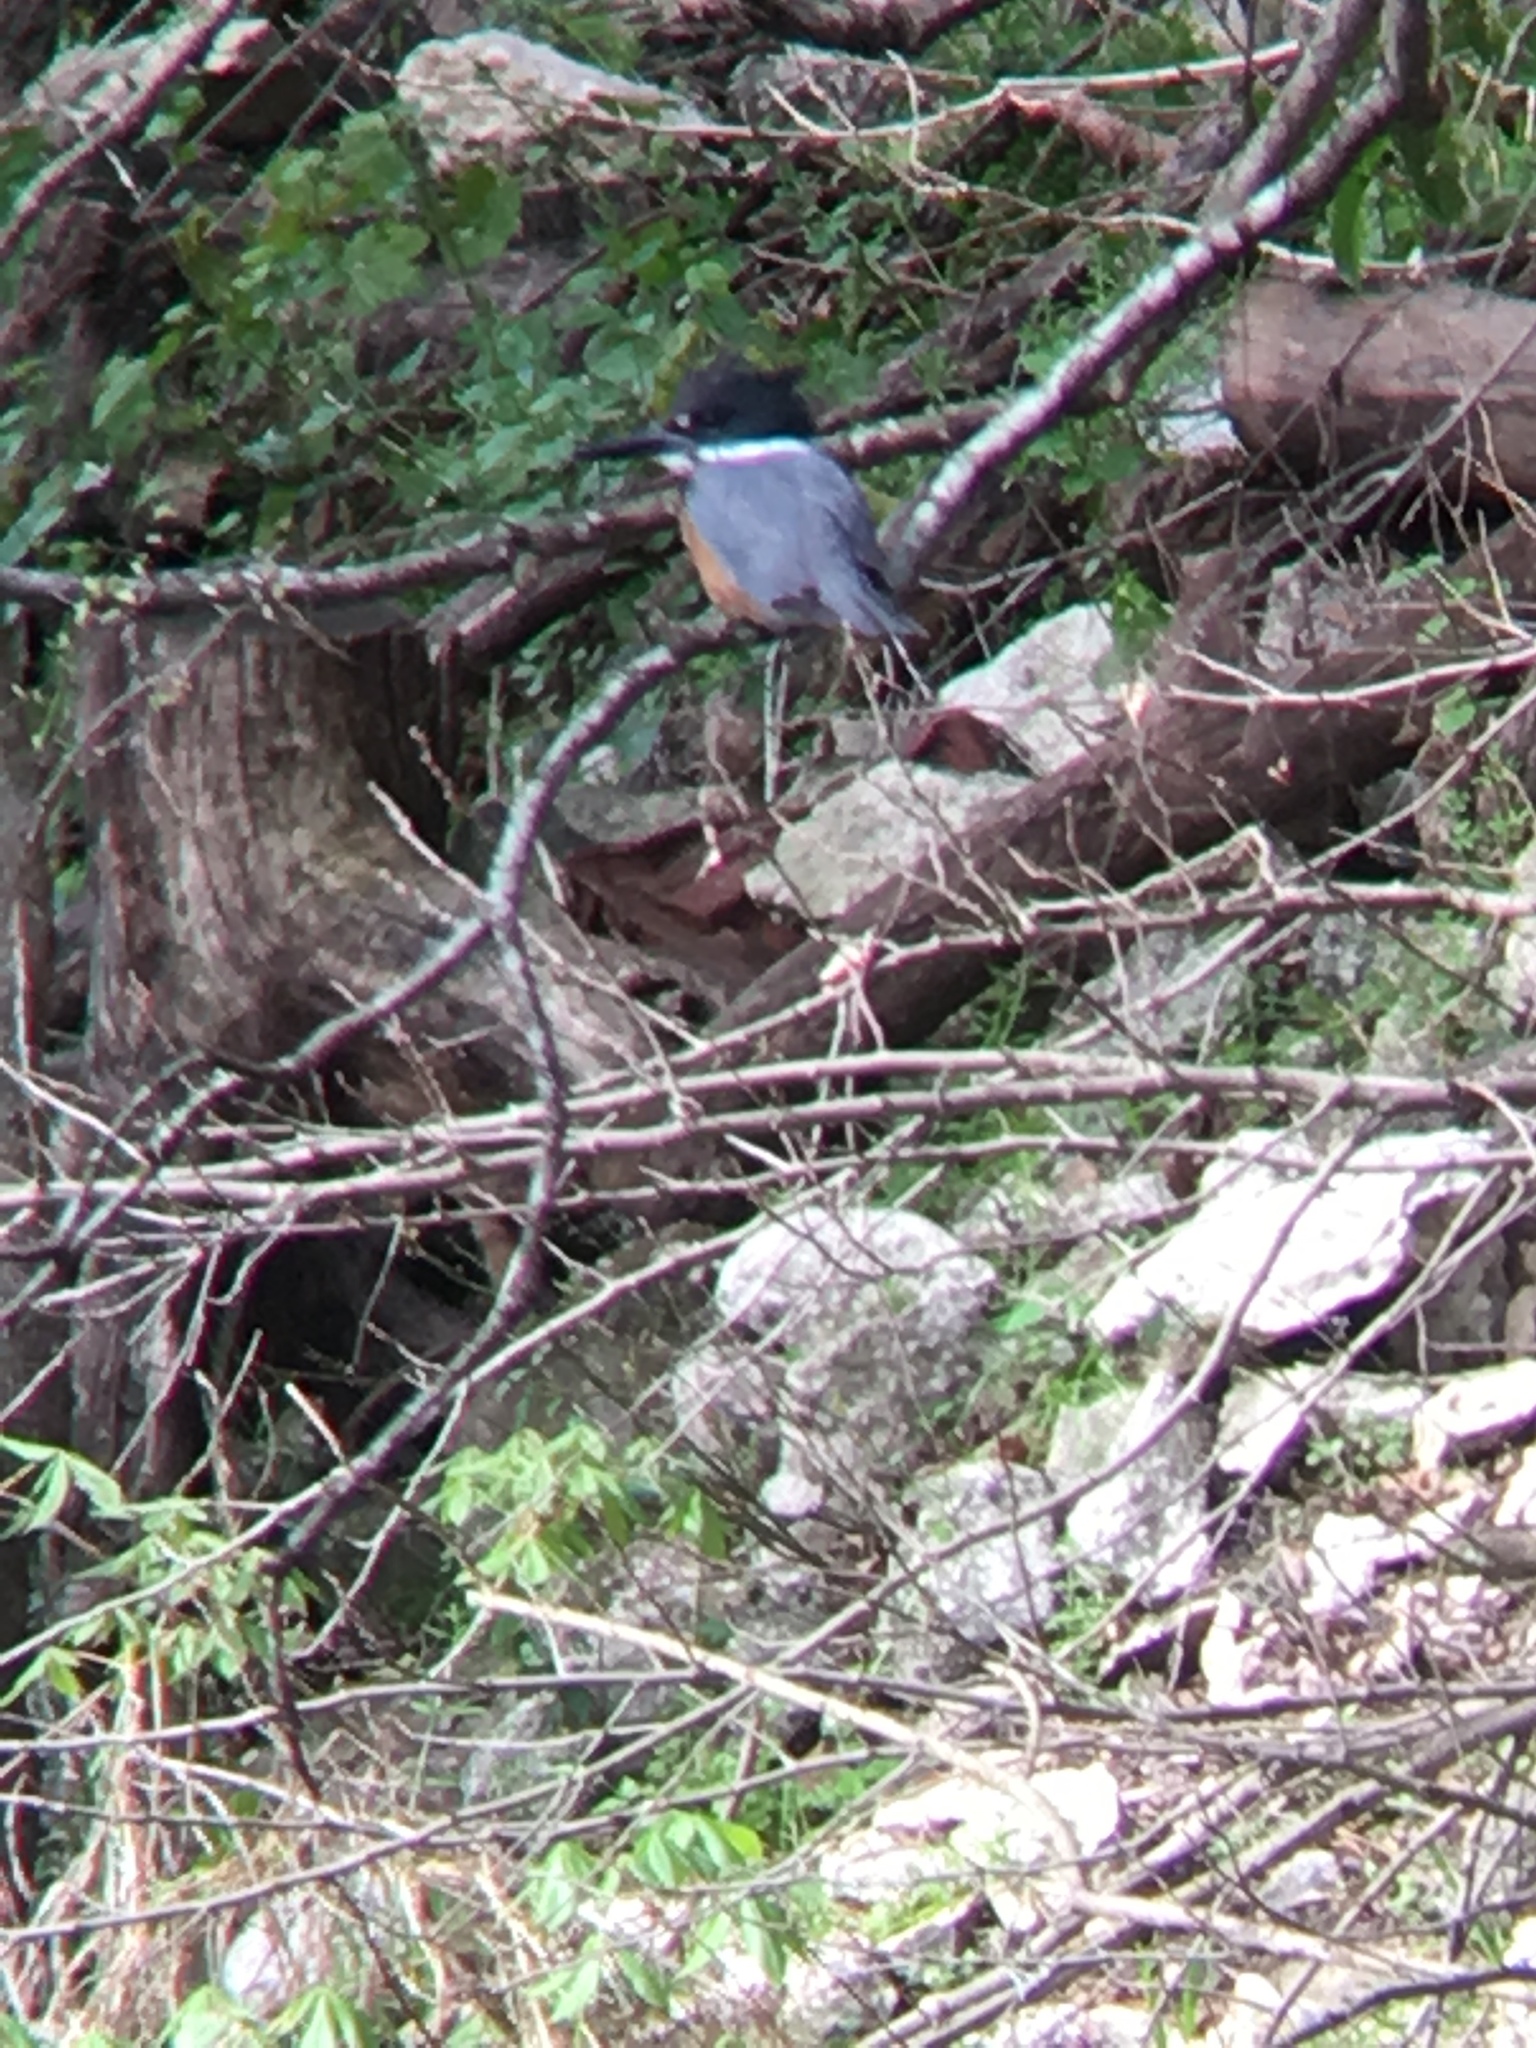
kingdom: Animalia
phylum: Chordata
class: Aves
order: Coraciiformes
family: Alcedinidae
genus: Megaceryle
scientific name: Megaceryle alcyon
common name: Belted kingfisher
